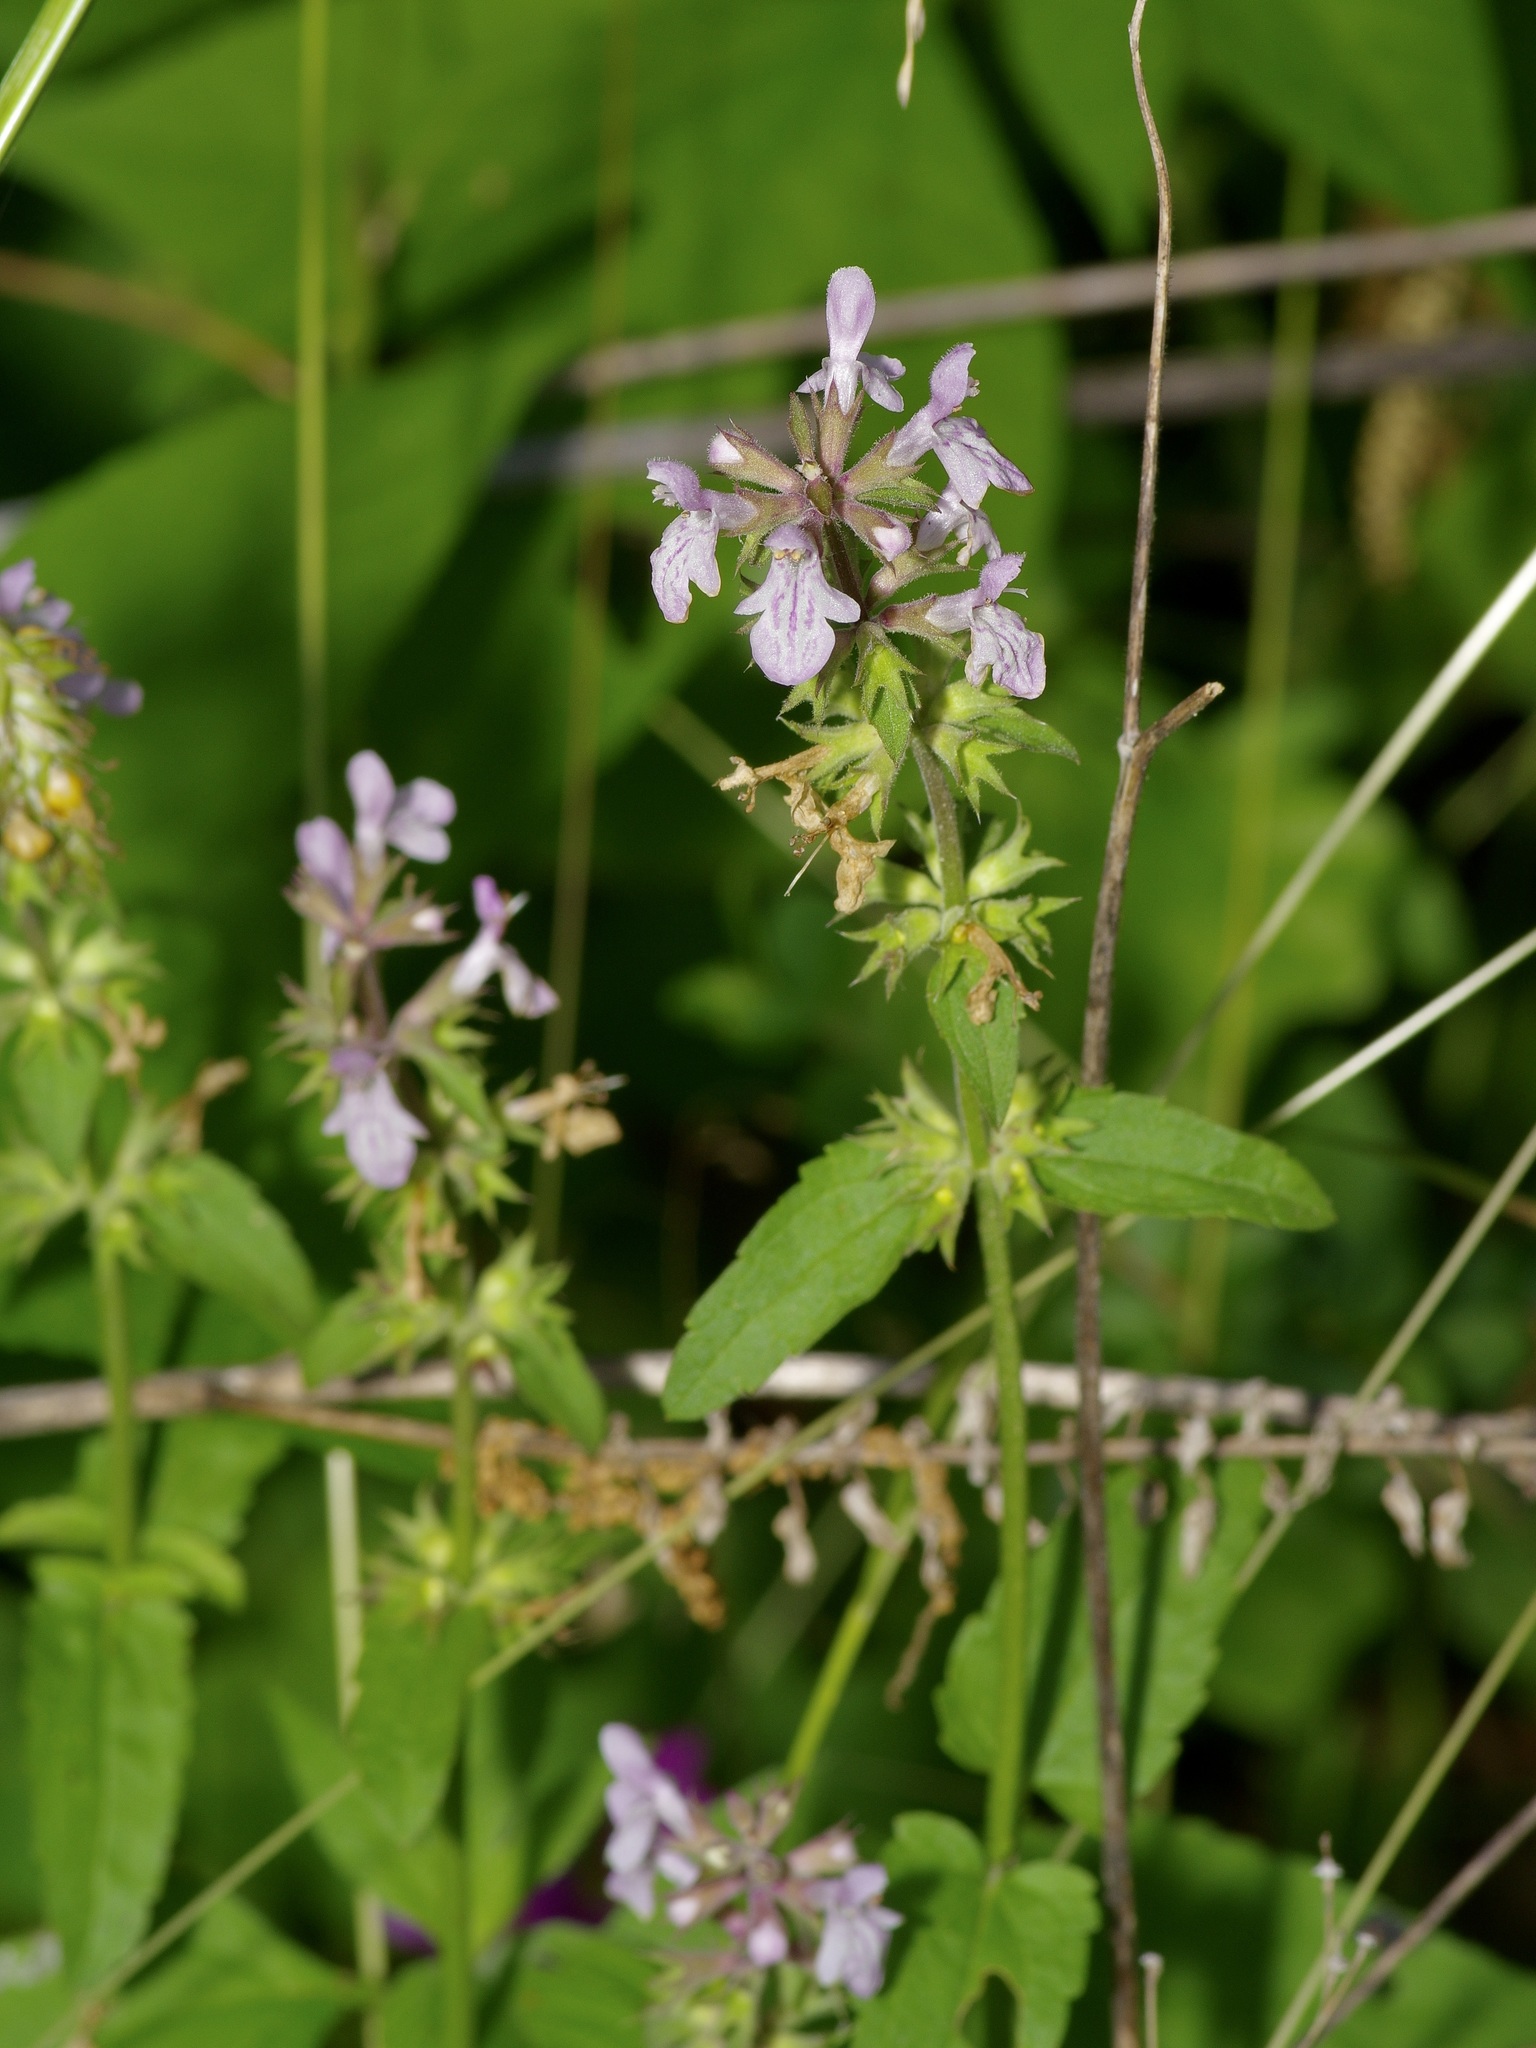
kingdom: Plantae
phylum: Tracheophyta
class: Magnoliopsida
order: Lamiales
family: Lamiaceae
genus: Stachys
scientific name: Stachys floridana
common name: Florida betony
